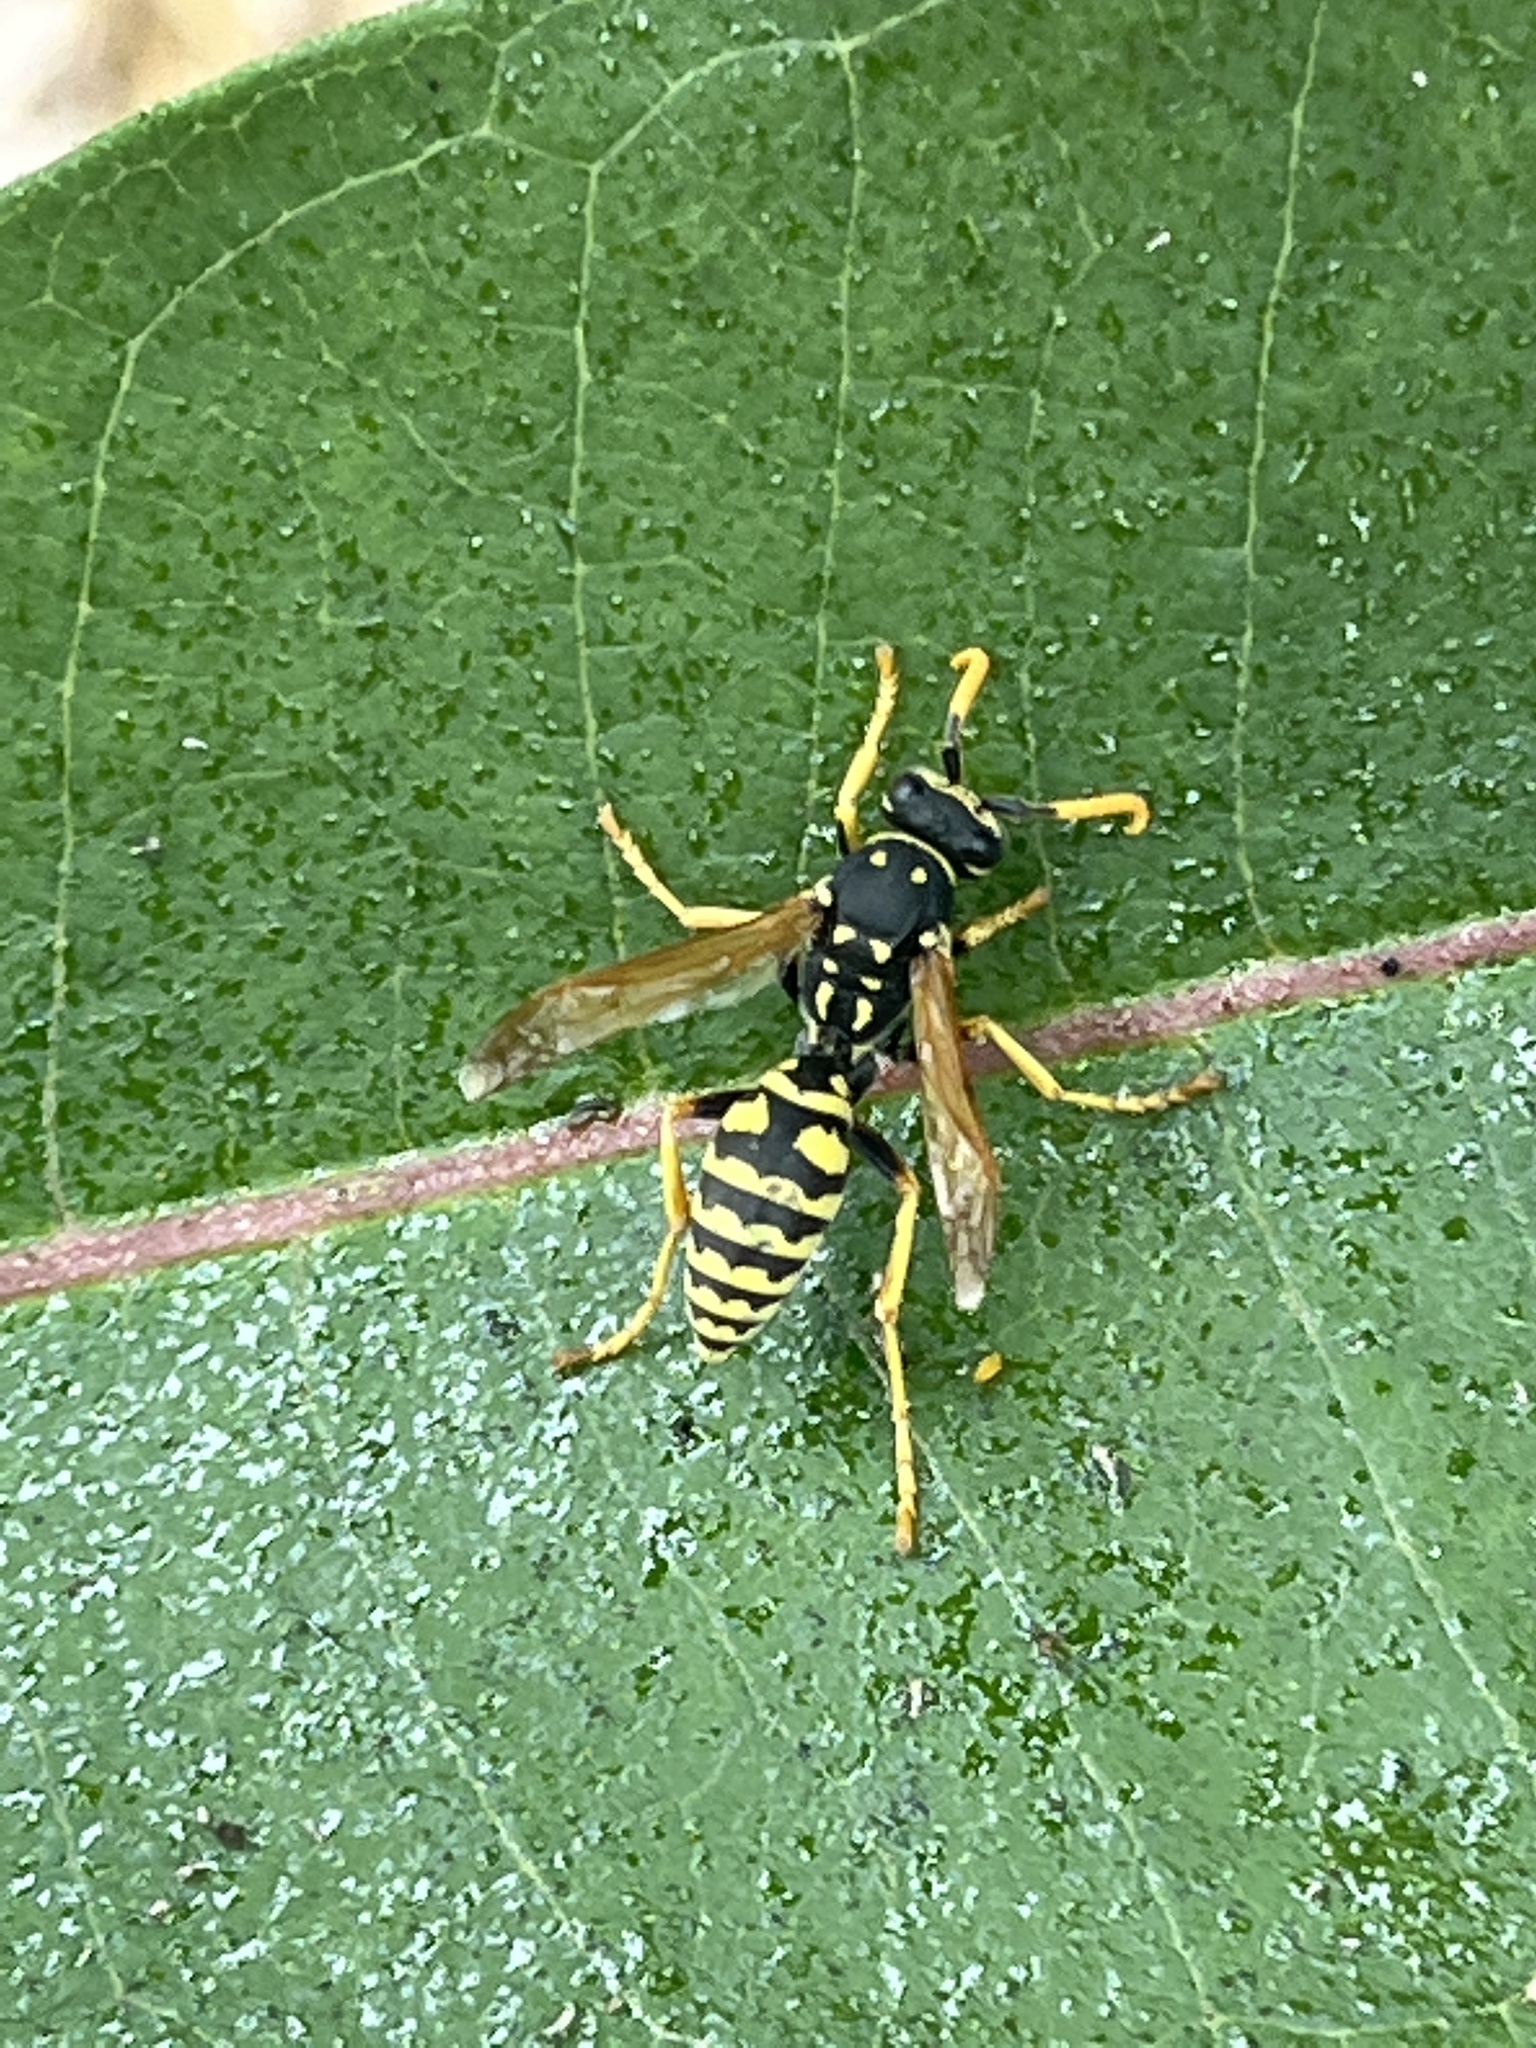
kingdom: Animalia
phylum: Arthropoda
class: Insecta
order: Hymenoptera
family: Eumenidae
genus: Polistes
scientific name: Polistes dominula
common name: Paper wasp
